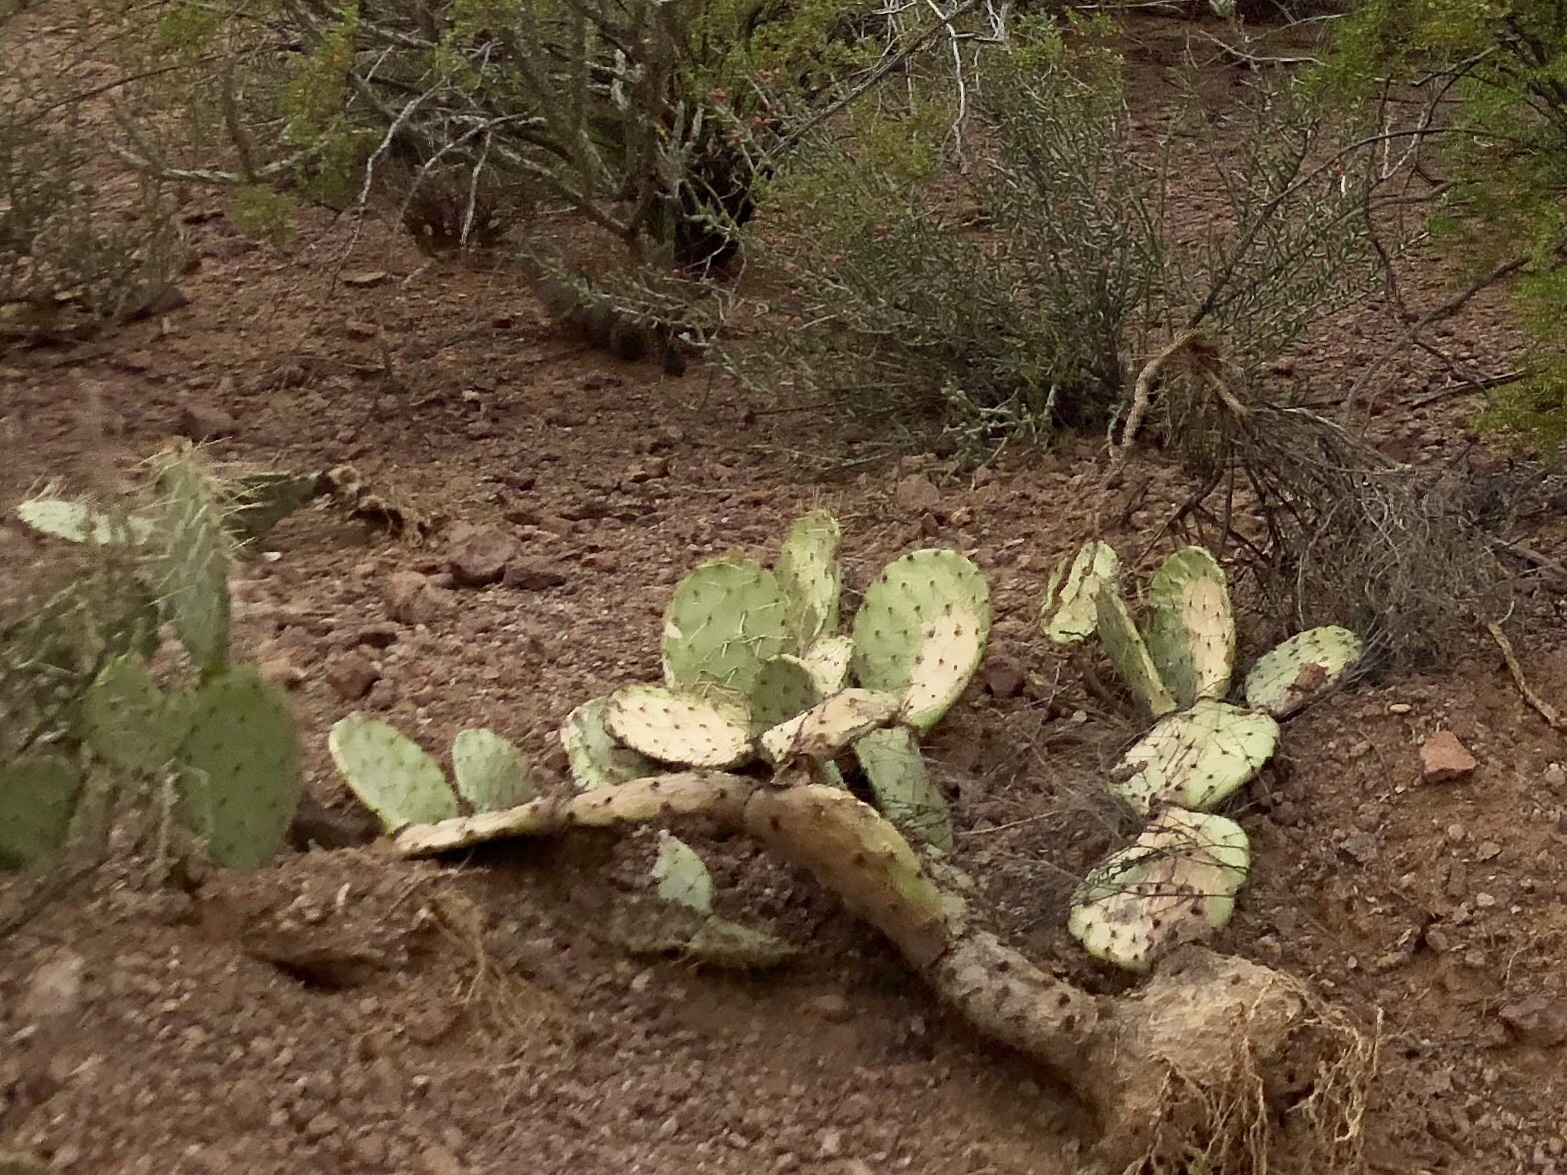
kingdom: Plantae
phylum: Tracheophyta
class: Magnoliopsida
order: Caryophyllales
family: Cactaceae
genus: Opuntia
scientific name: Opuntia engelmannii
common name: Cactus-apple
